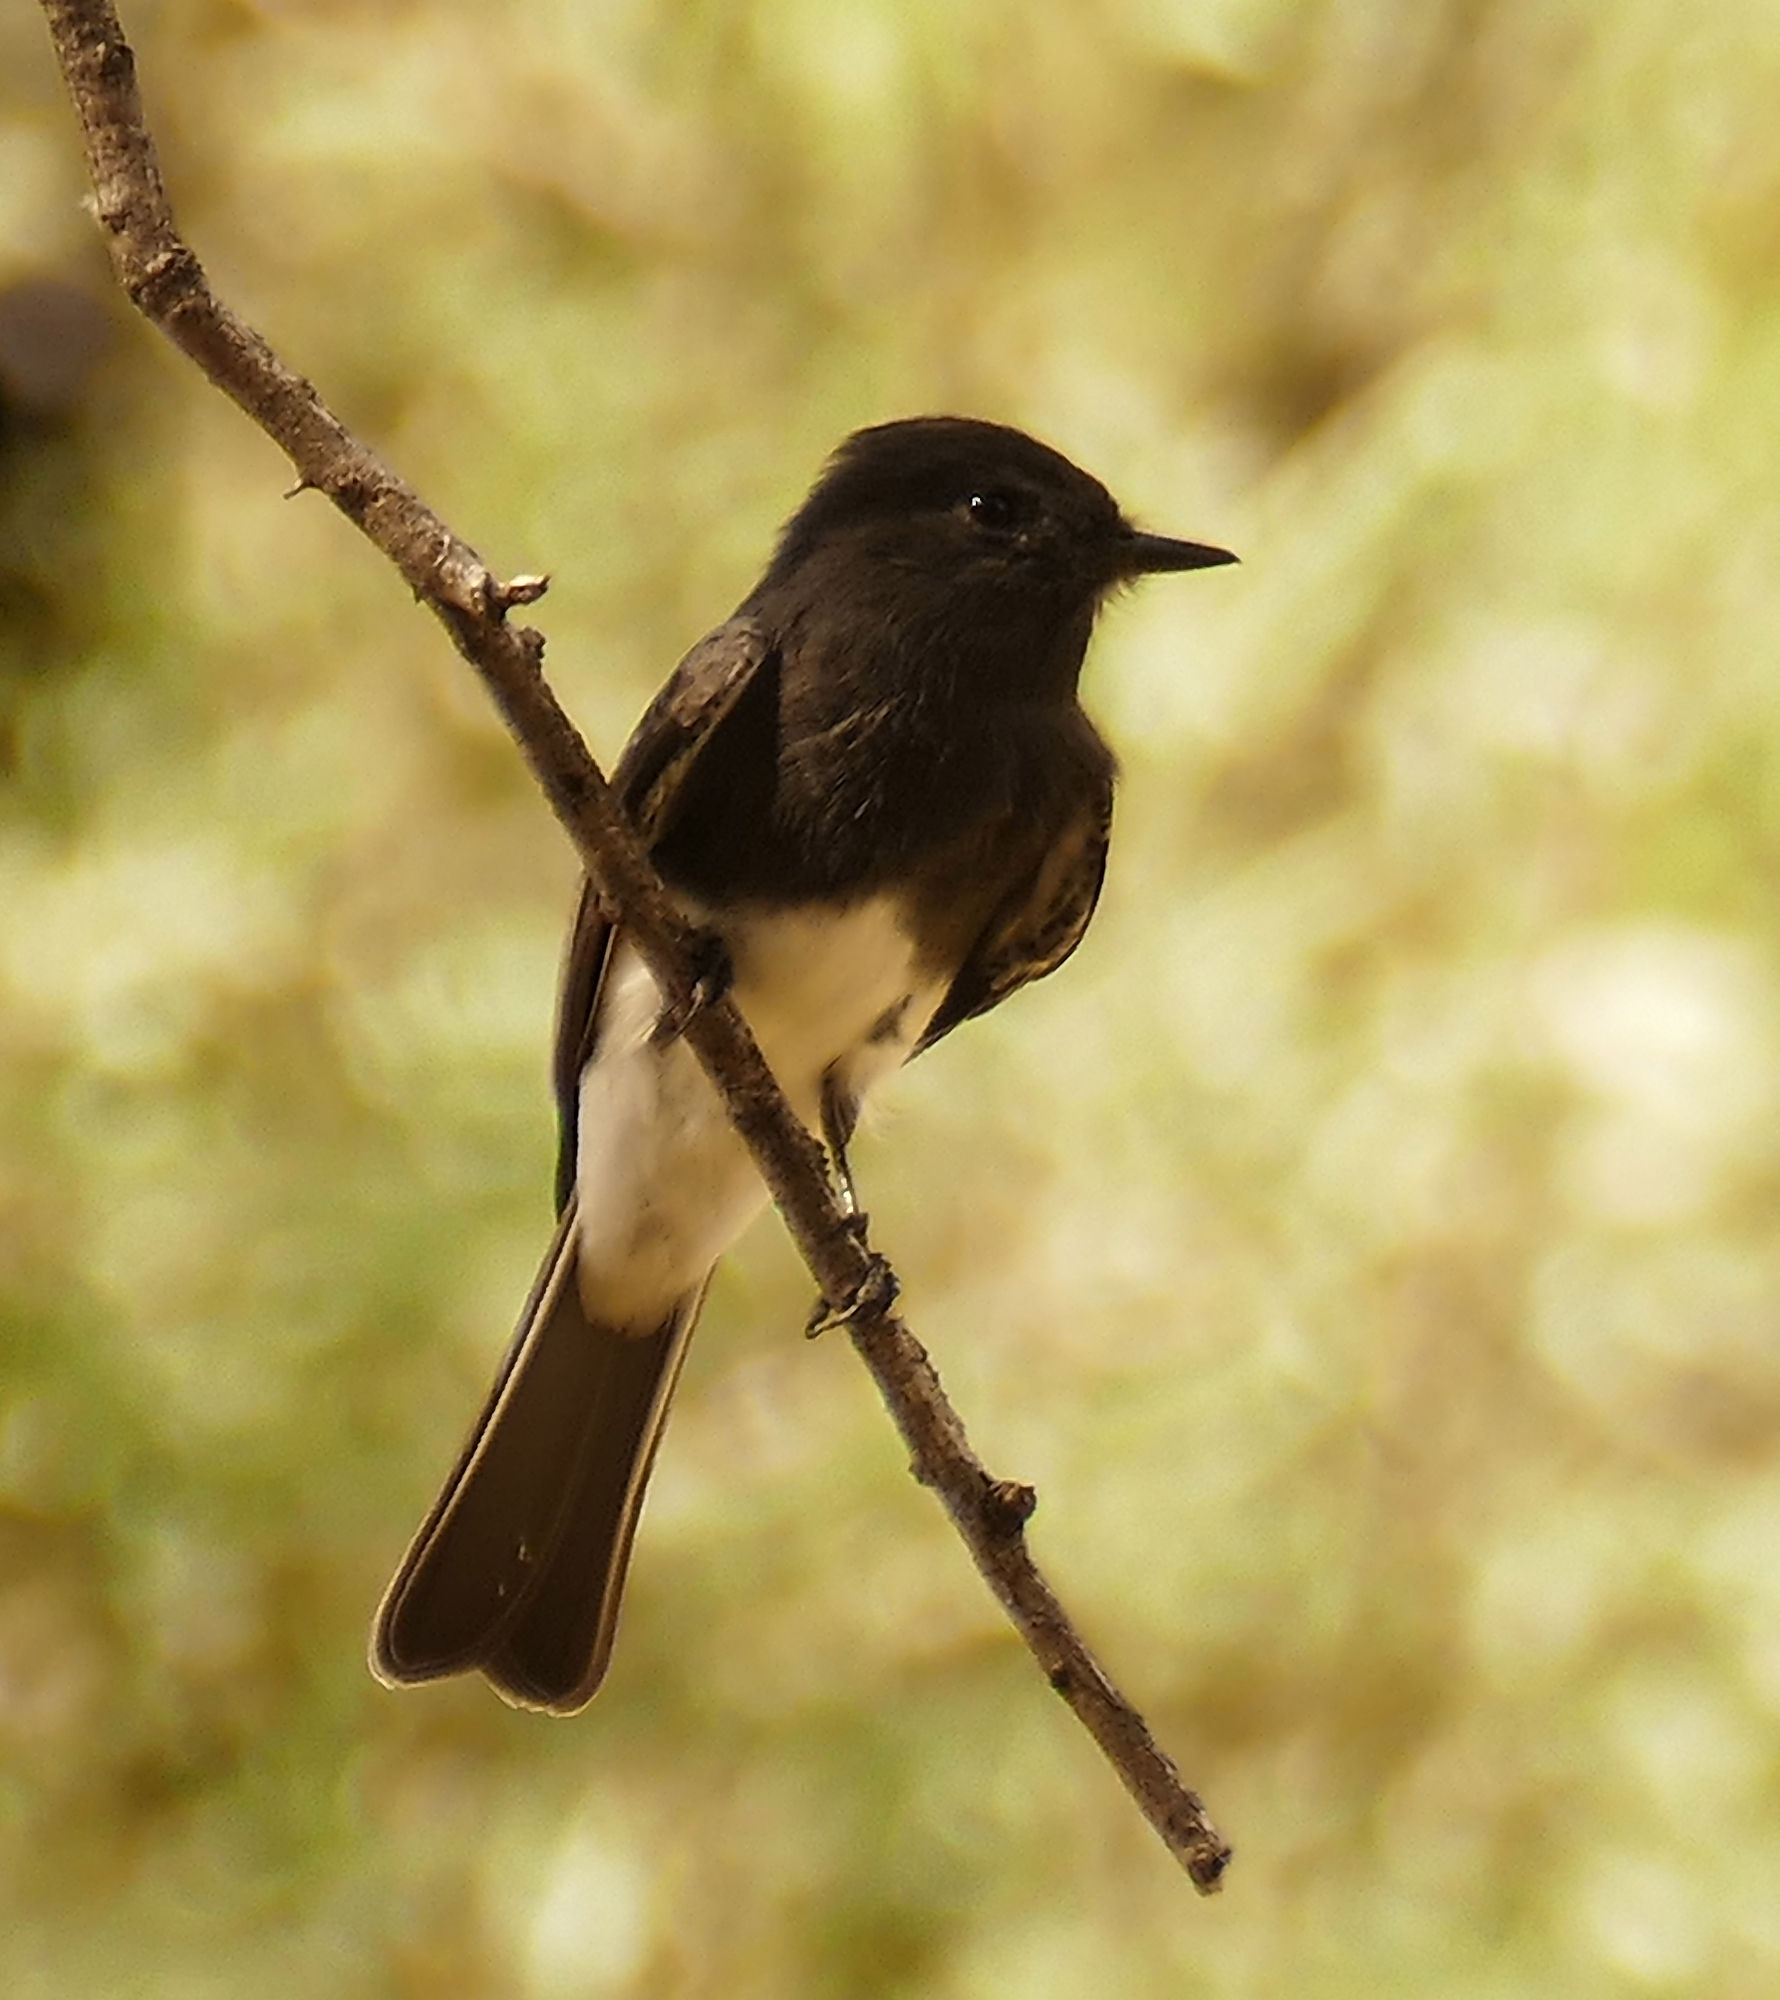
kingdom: Animalia
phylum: Chordata
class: Aves
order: Passeriformes
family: Tyrannidae
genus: Sayornis
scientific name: Sayornis nigricans
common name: Black phoebe
